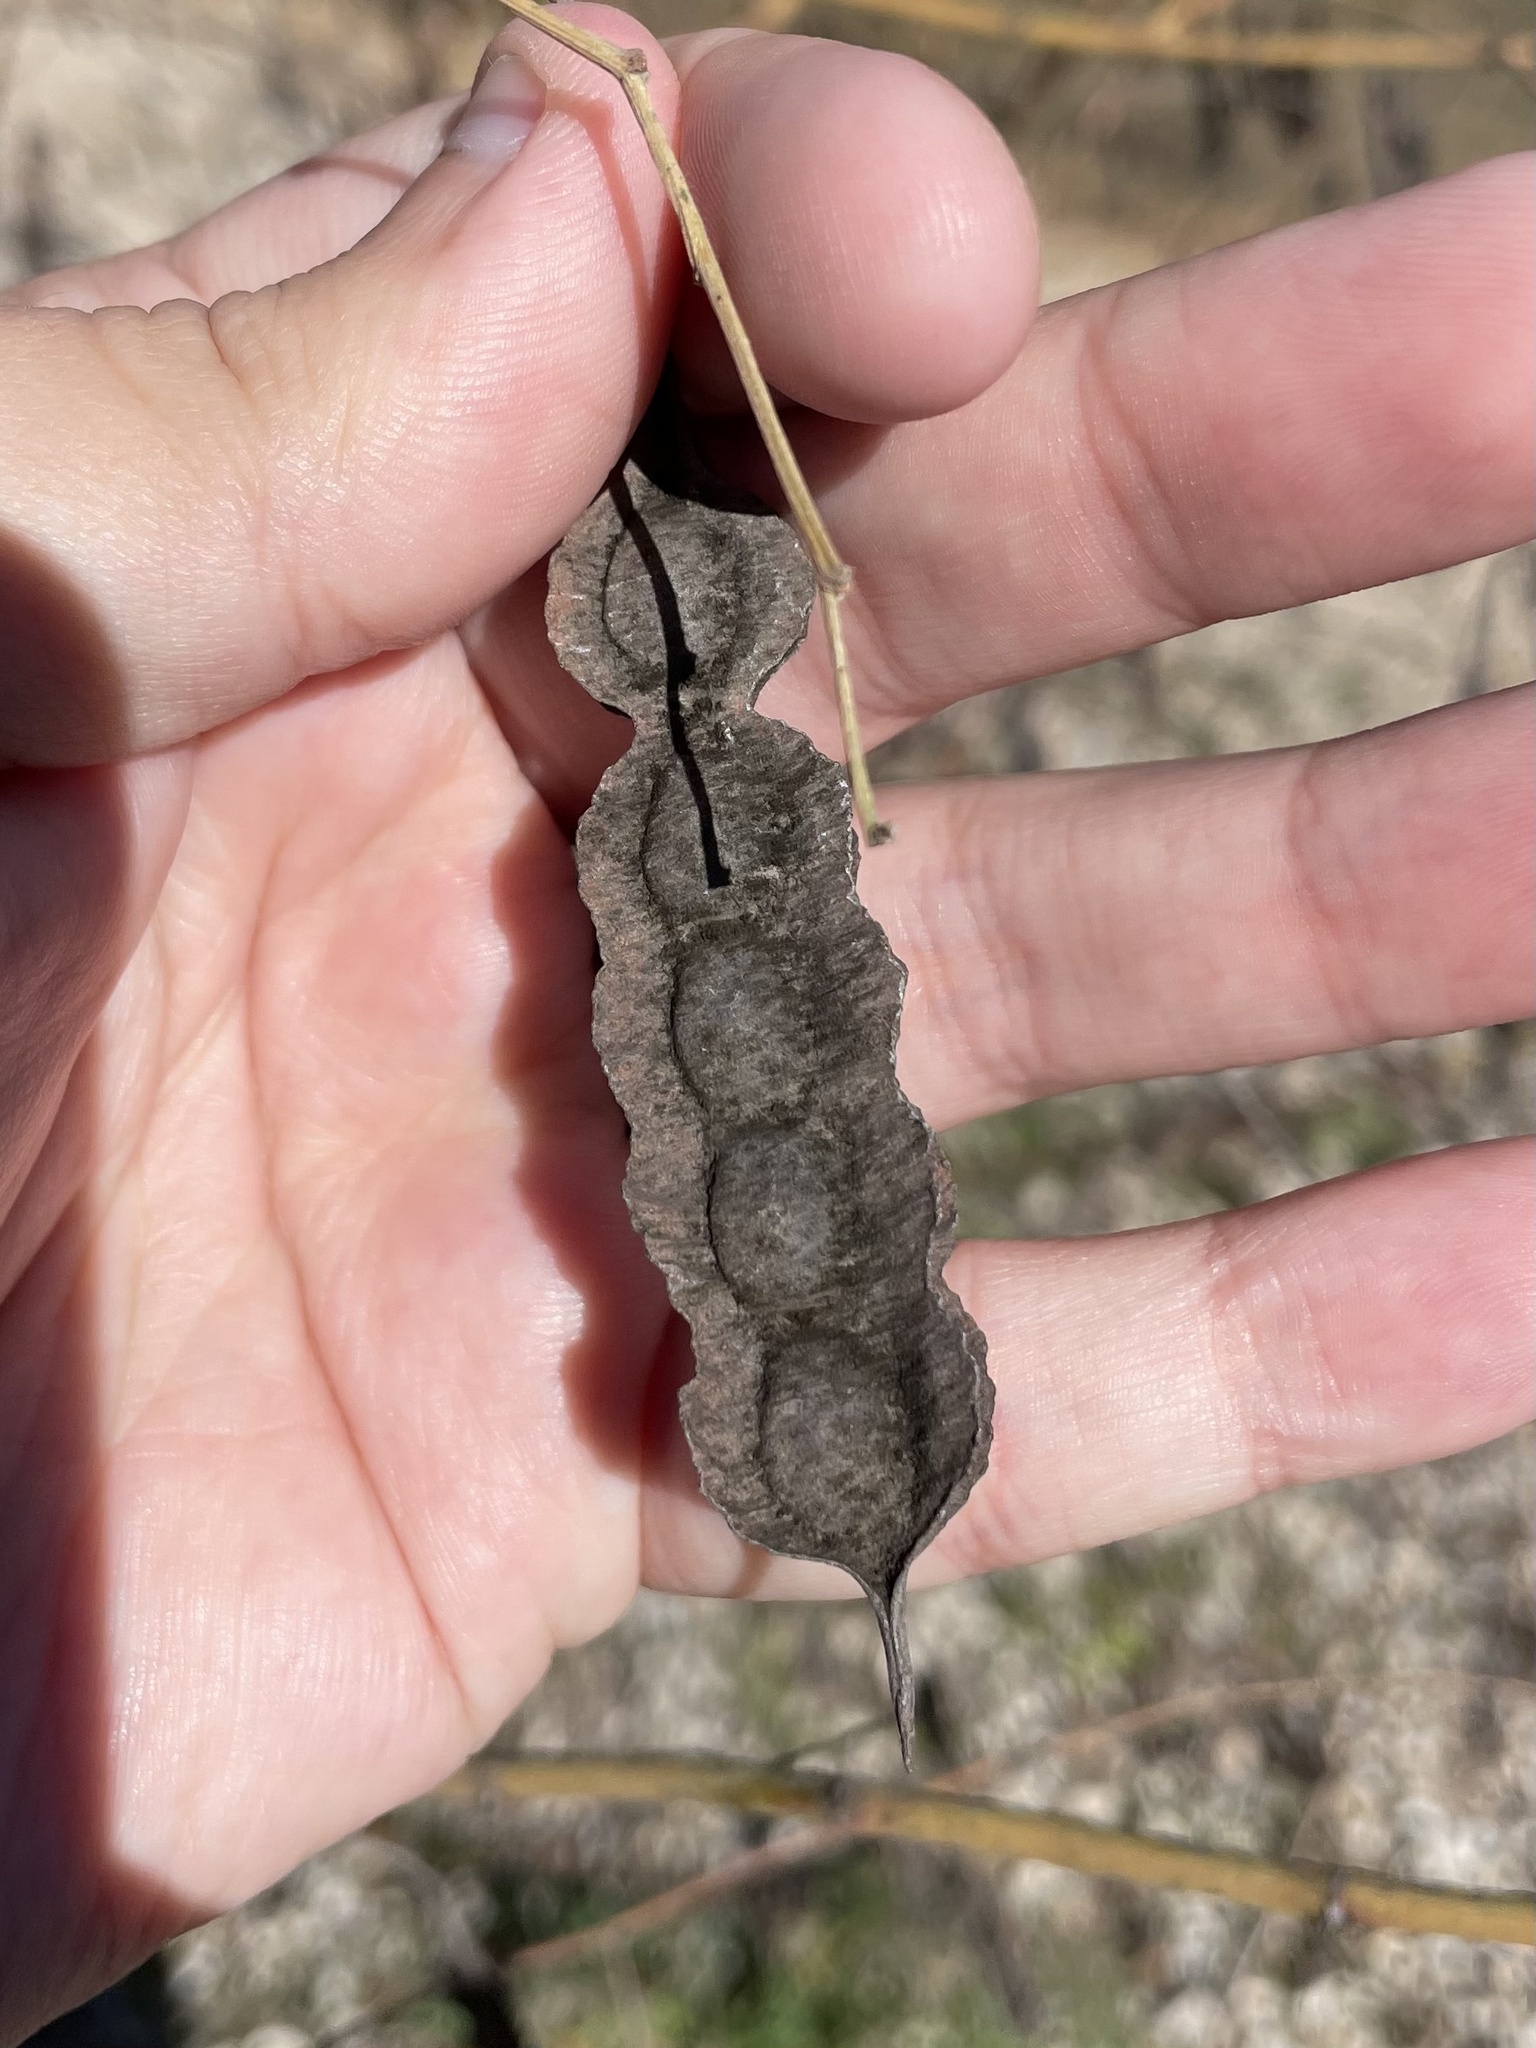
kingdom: Plantae
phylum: Tracheophyta
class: Magnoliopsida
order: Fabales
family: Fabaceae
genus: Sesbania
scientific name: Sesbania drummondii
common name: Poison-bean
